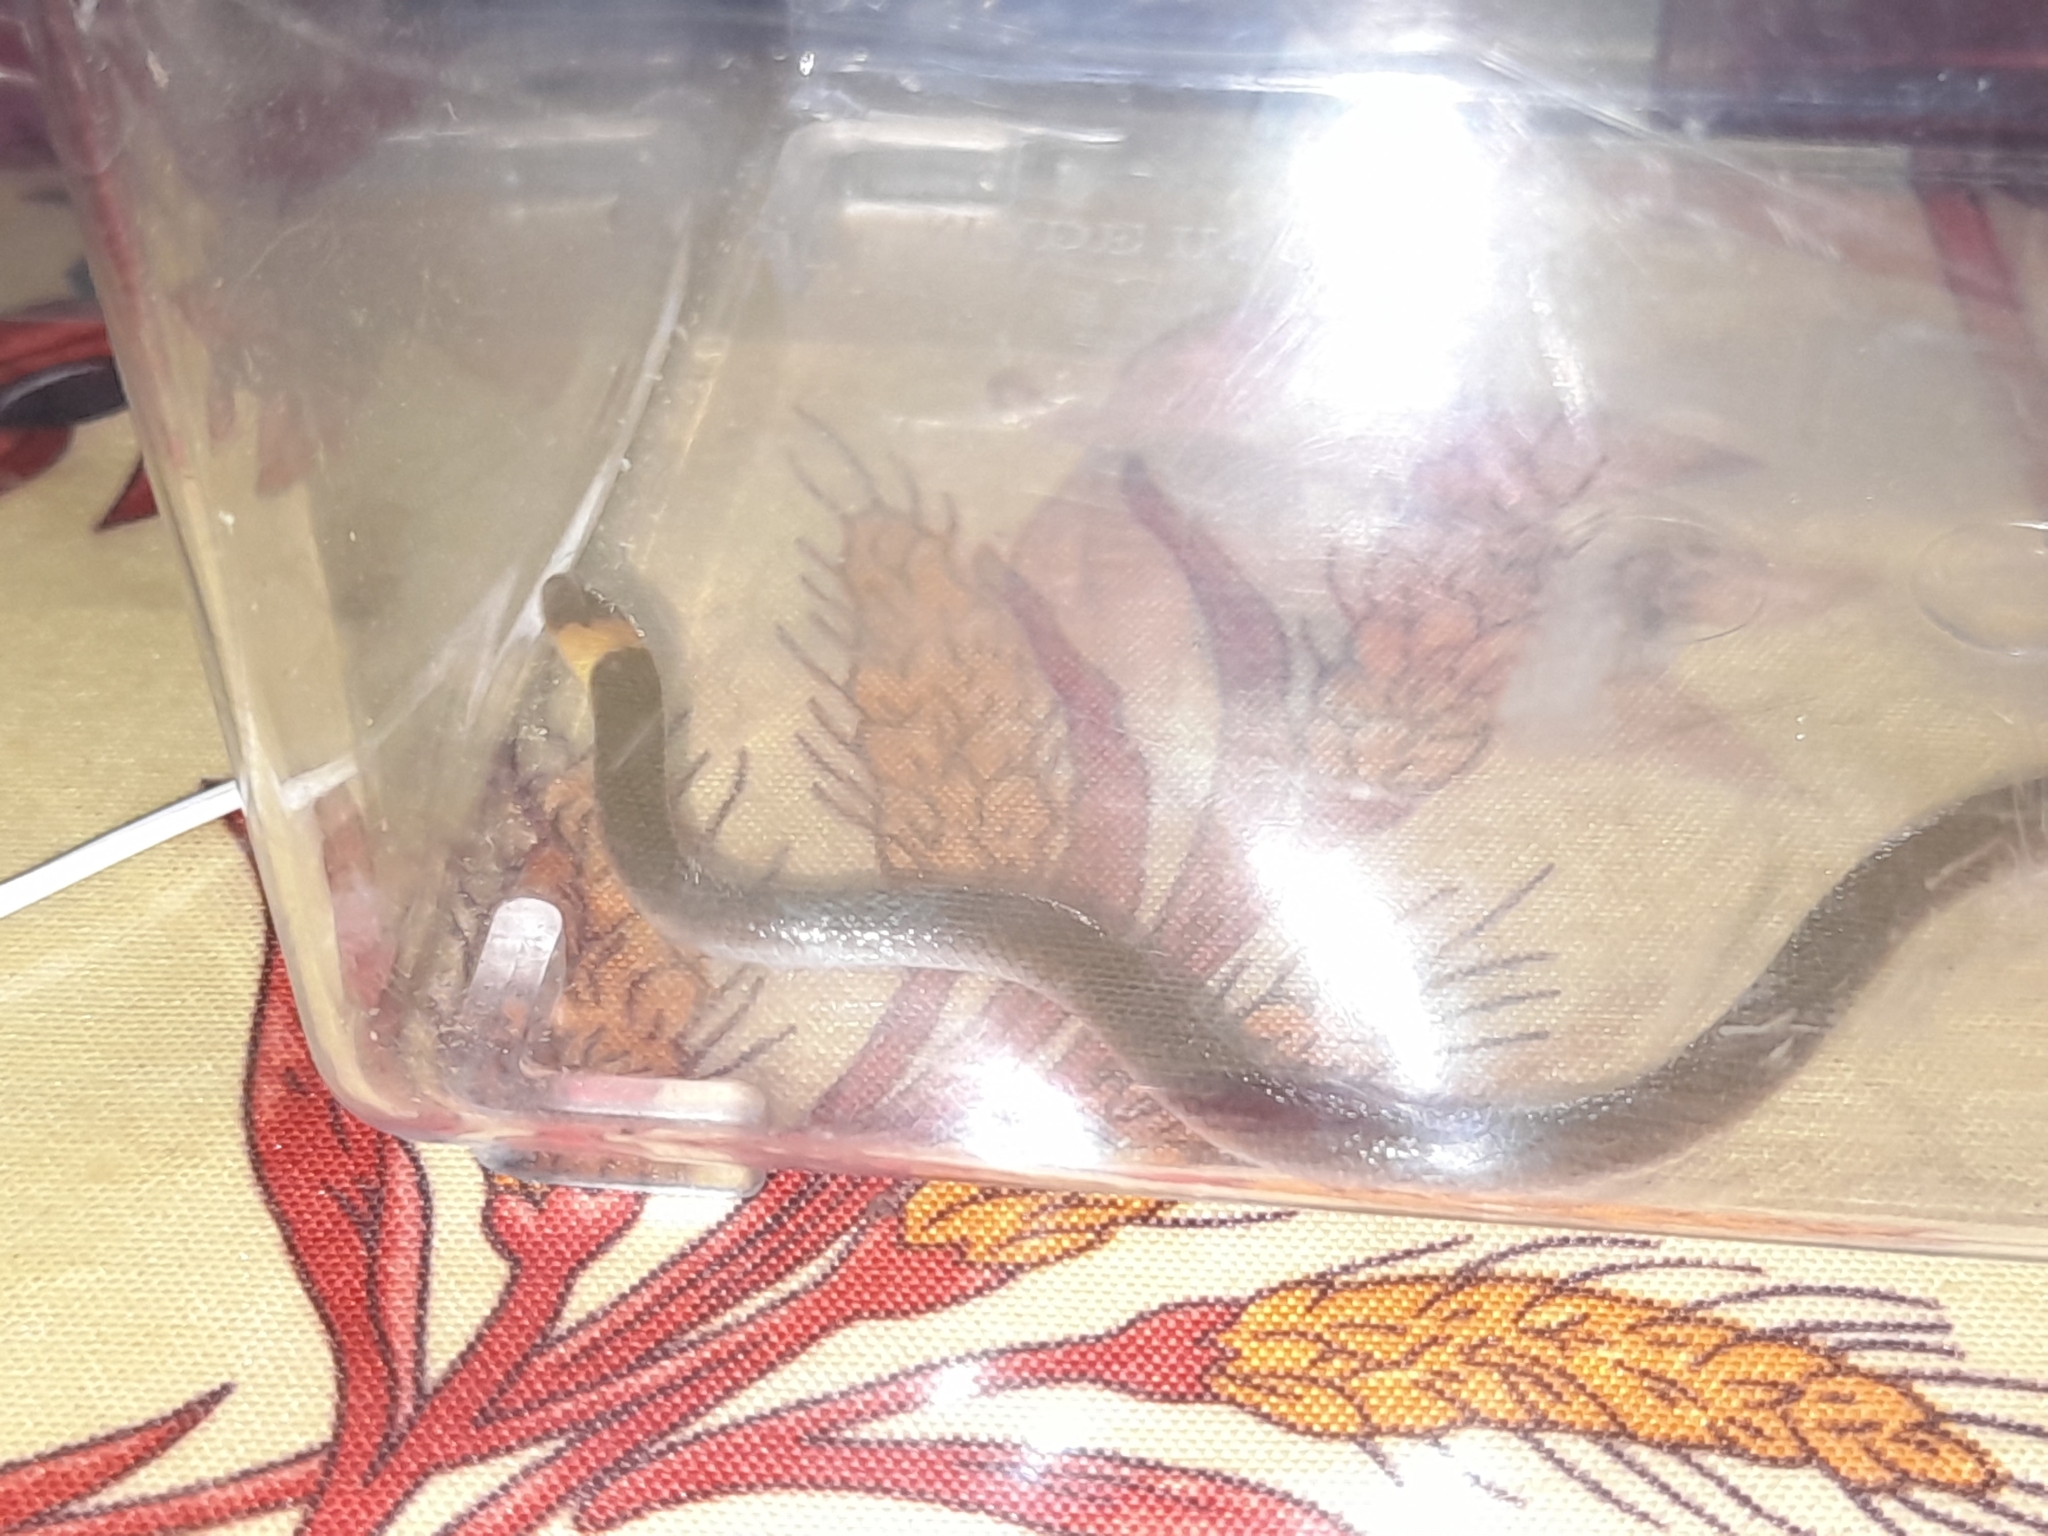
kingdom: Animalia
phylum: Chordata
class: Squamata
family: Colubridae
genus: Enulius
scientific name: Enulius flavitorques
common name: Pacific longtail snake
